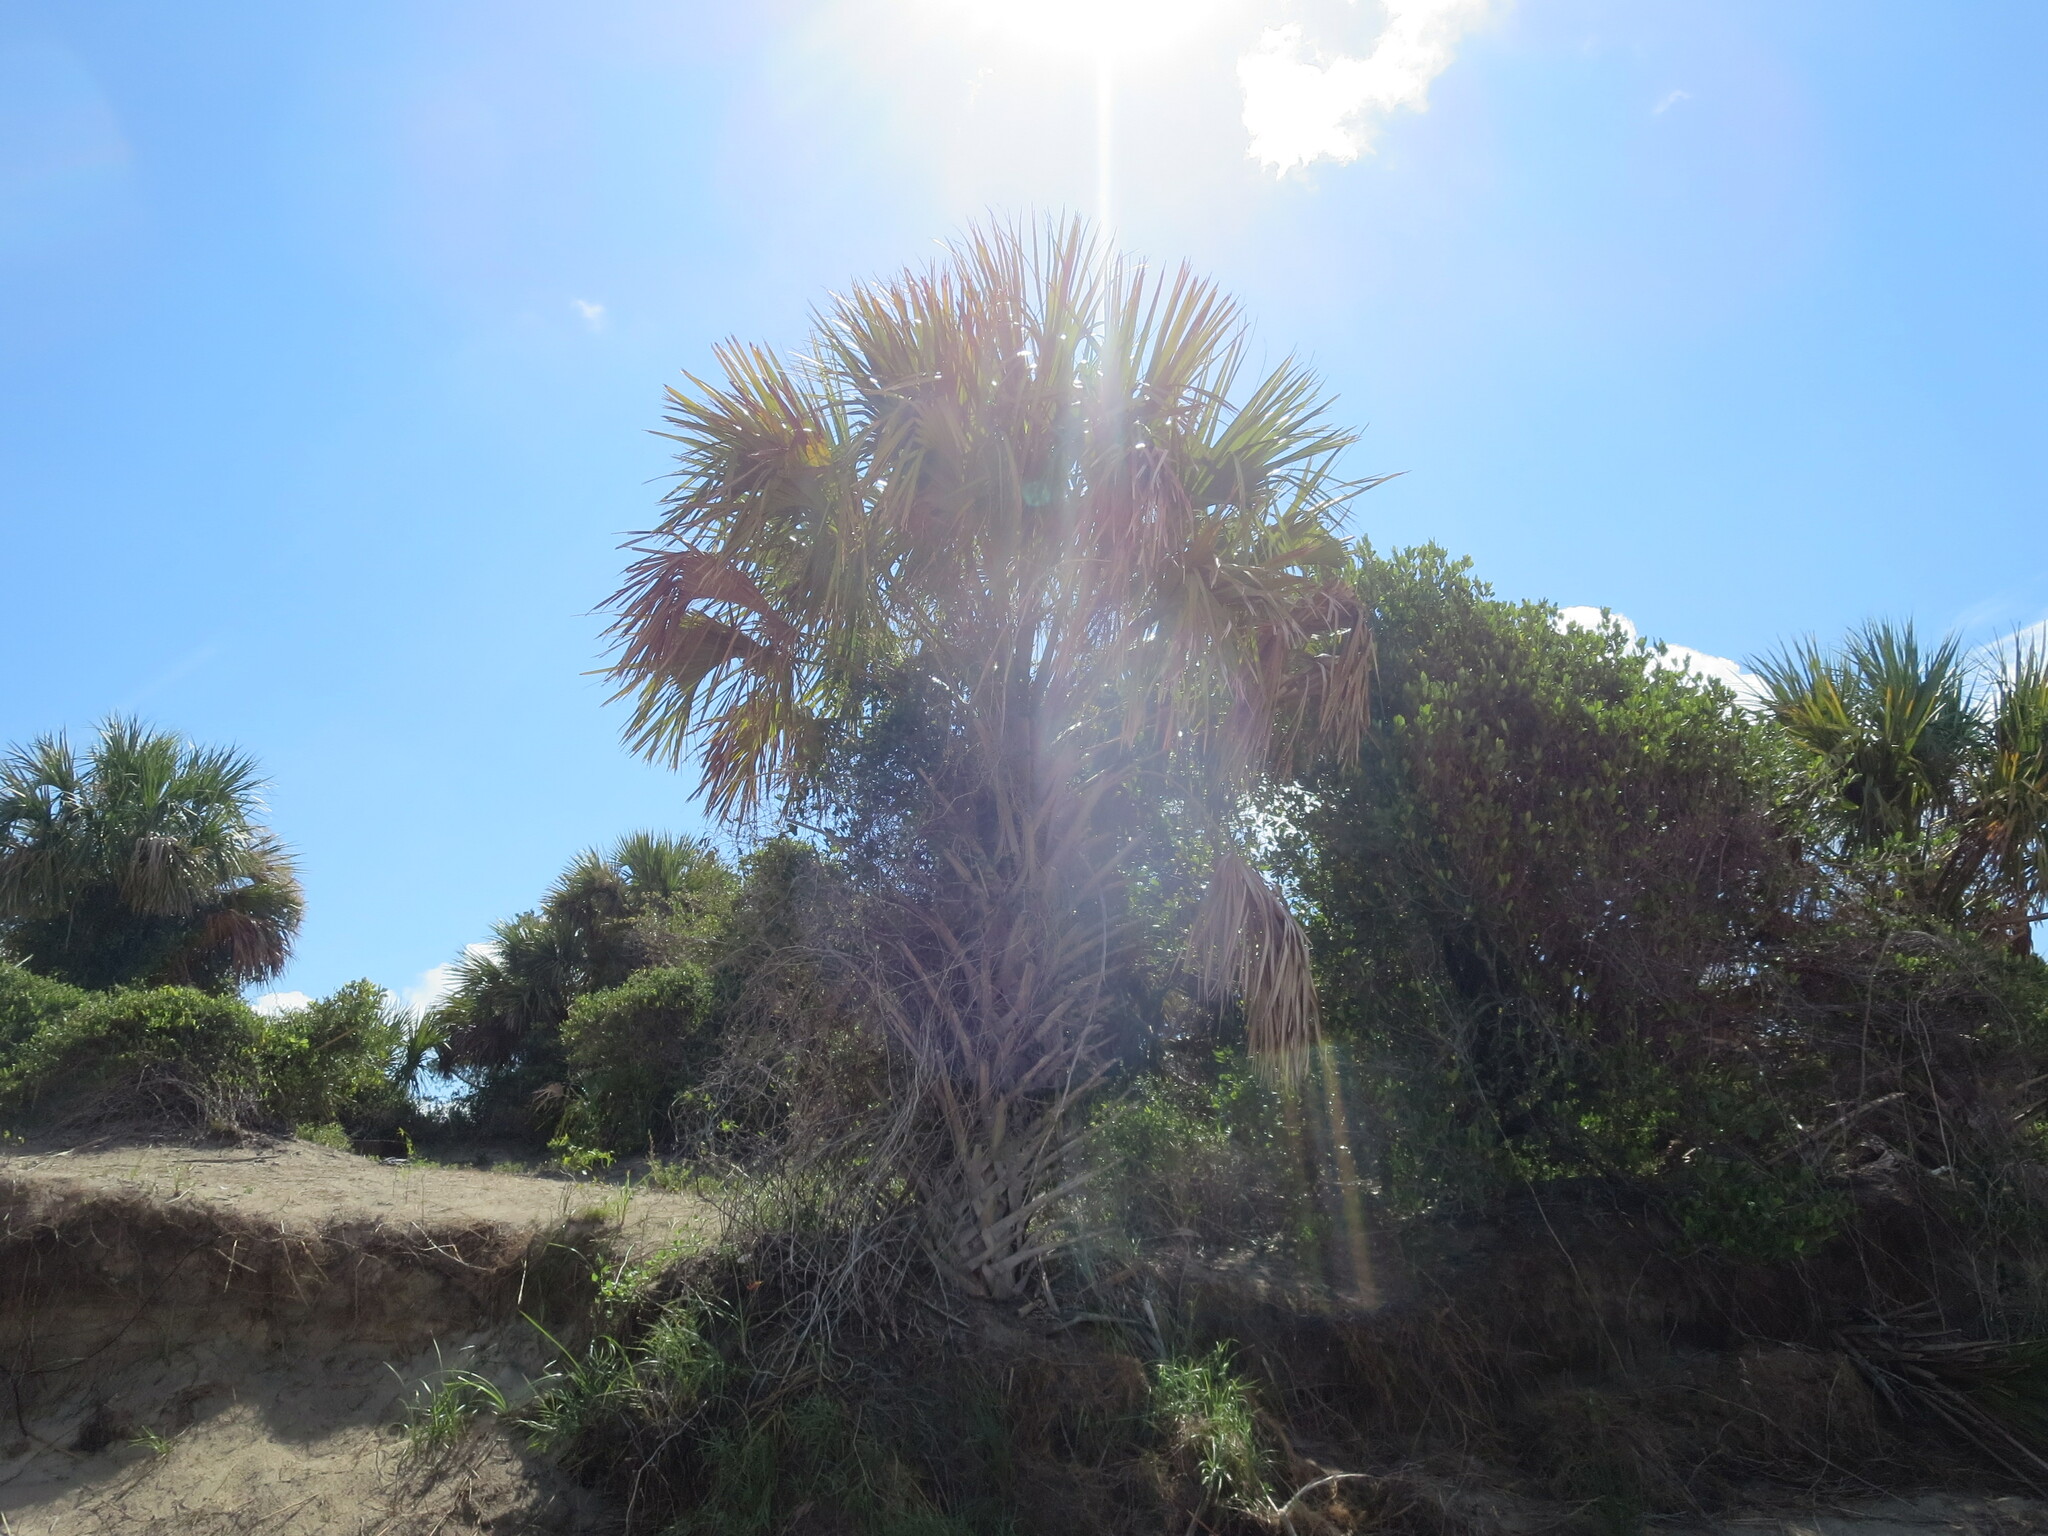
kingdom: Plantae
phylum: Tracheophyta
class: Liliopsida
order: Arecales
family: Arecaceae
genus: Sabal
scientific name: Sabal palmetto
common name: Blue palmetto
